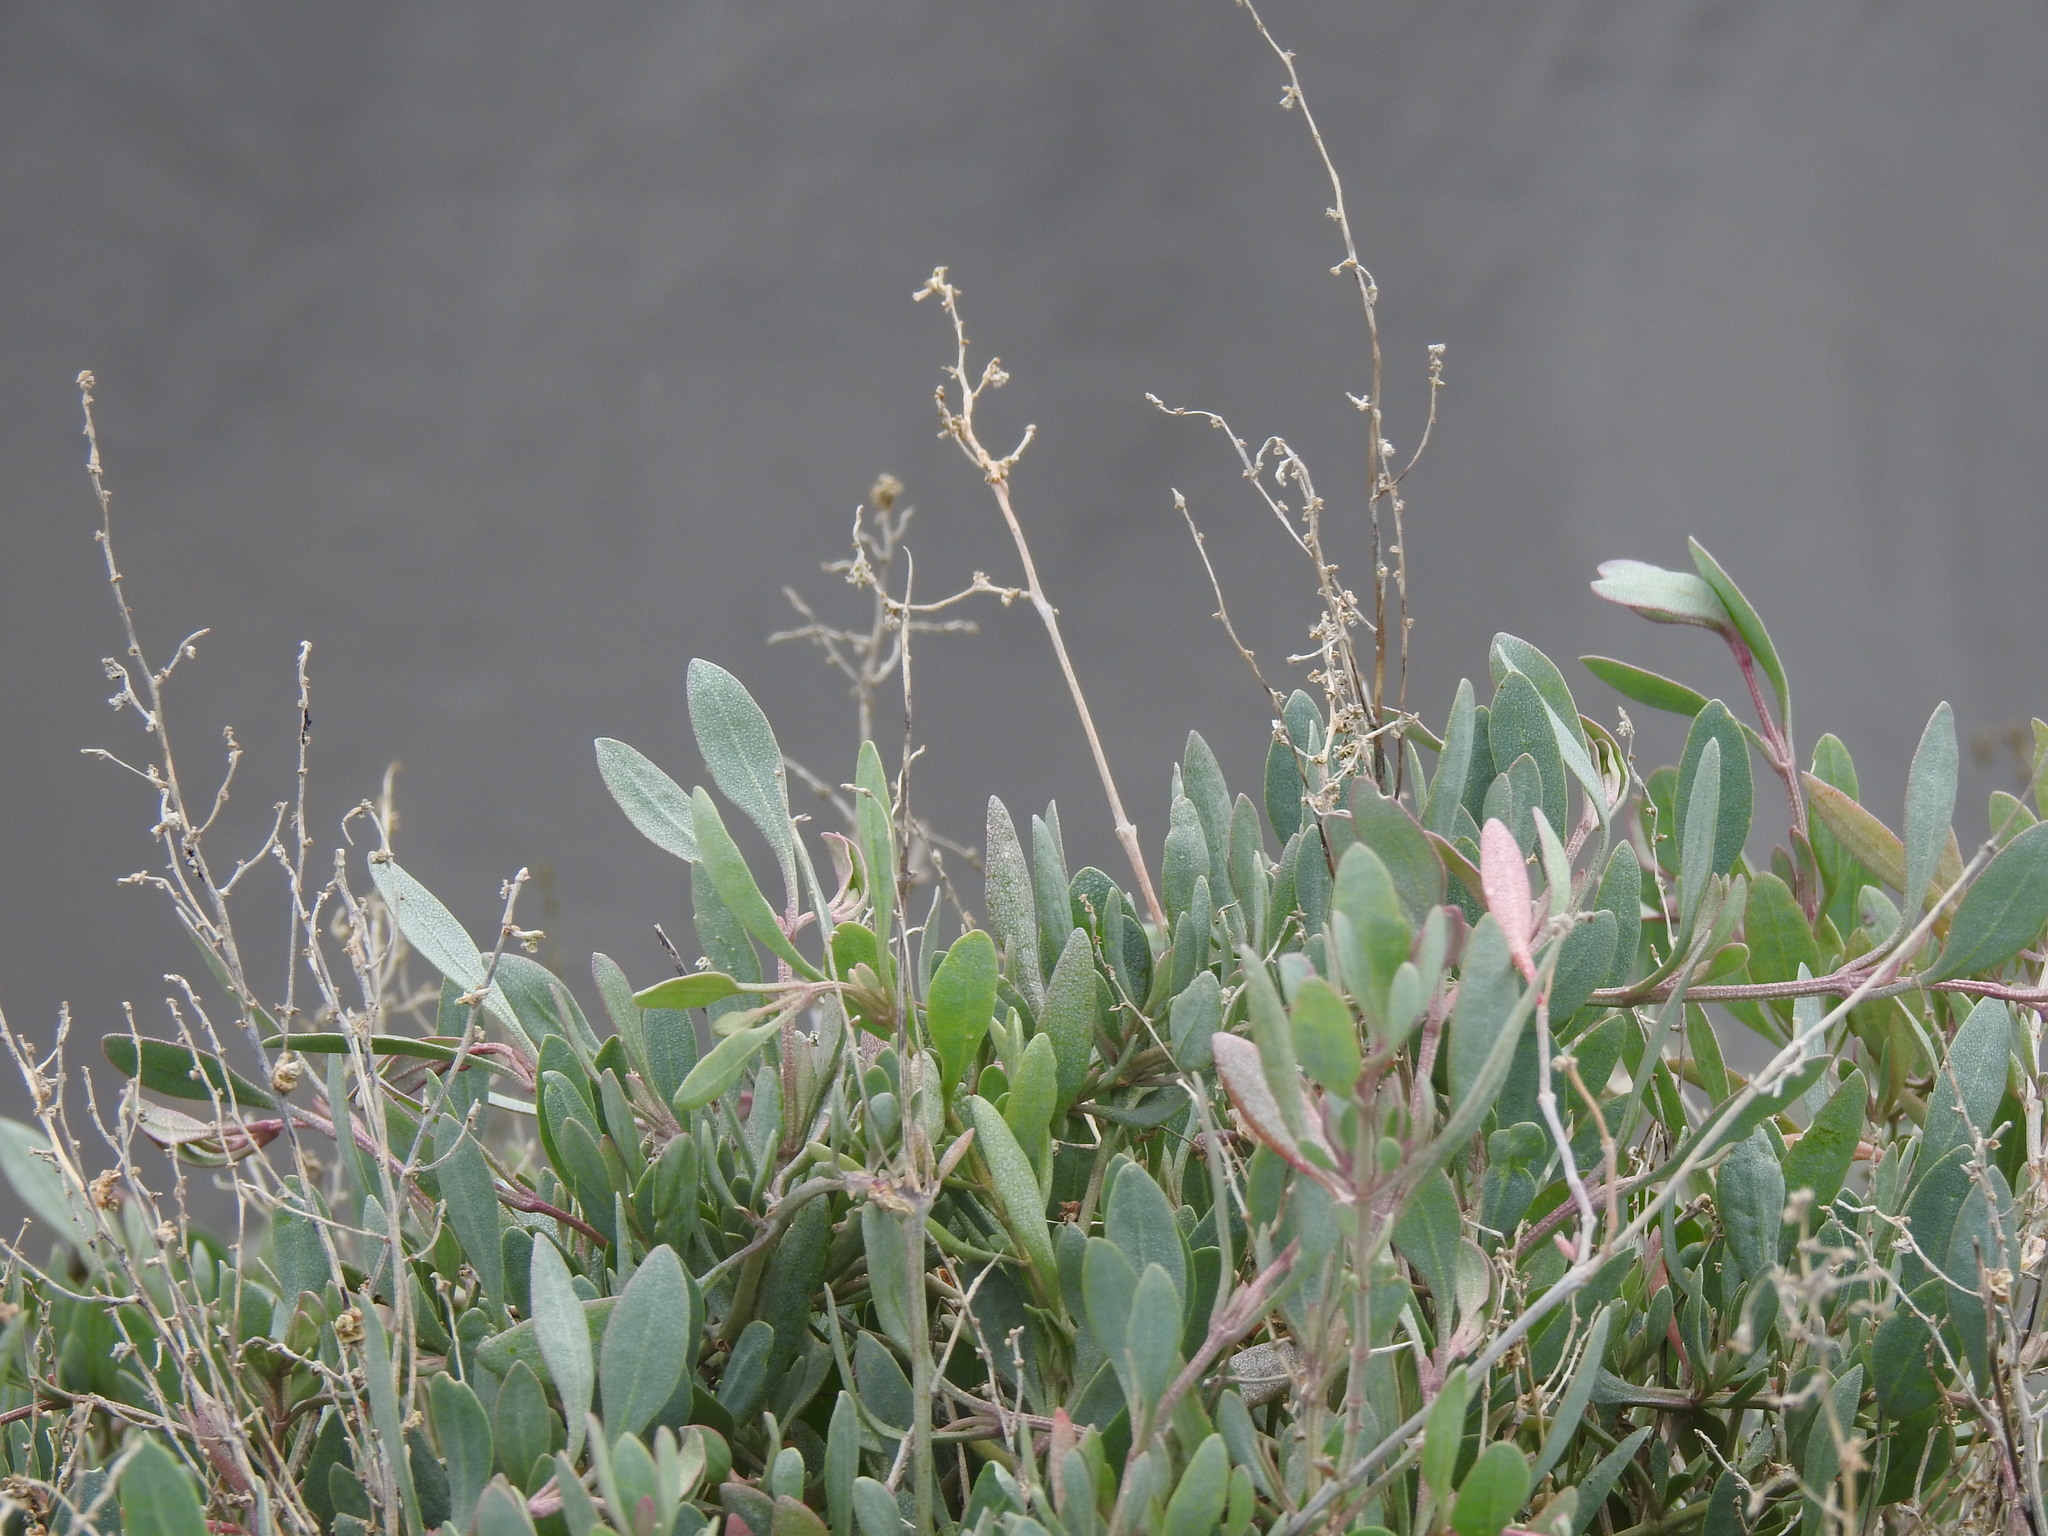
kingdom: Plantae
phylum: Tracheophyta
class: Magnoliopsida
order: Caryophyllales
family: Amaranthaceae
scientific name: Amaranthaceae
